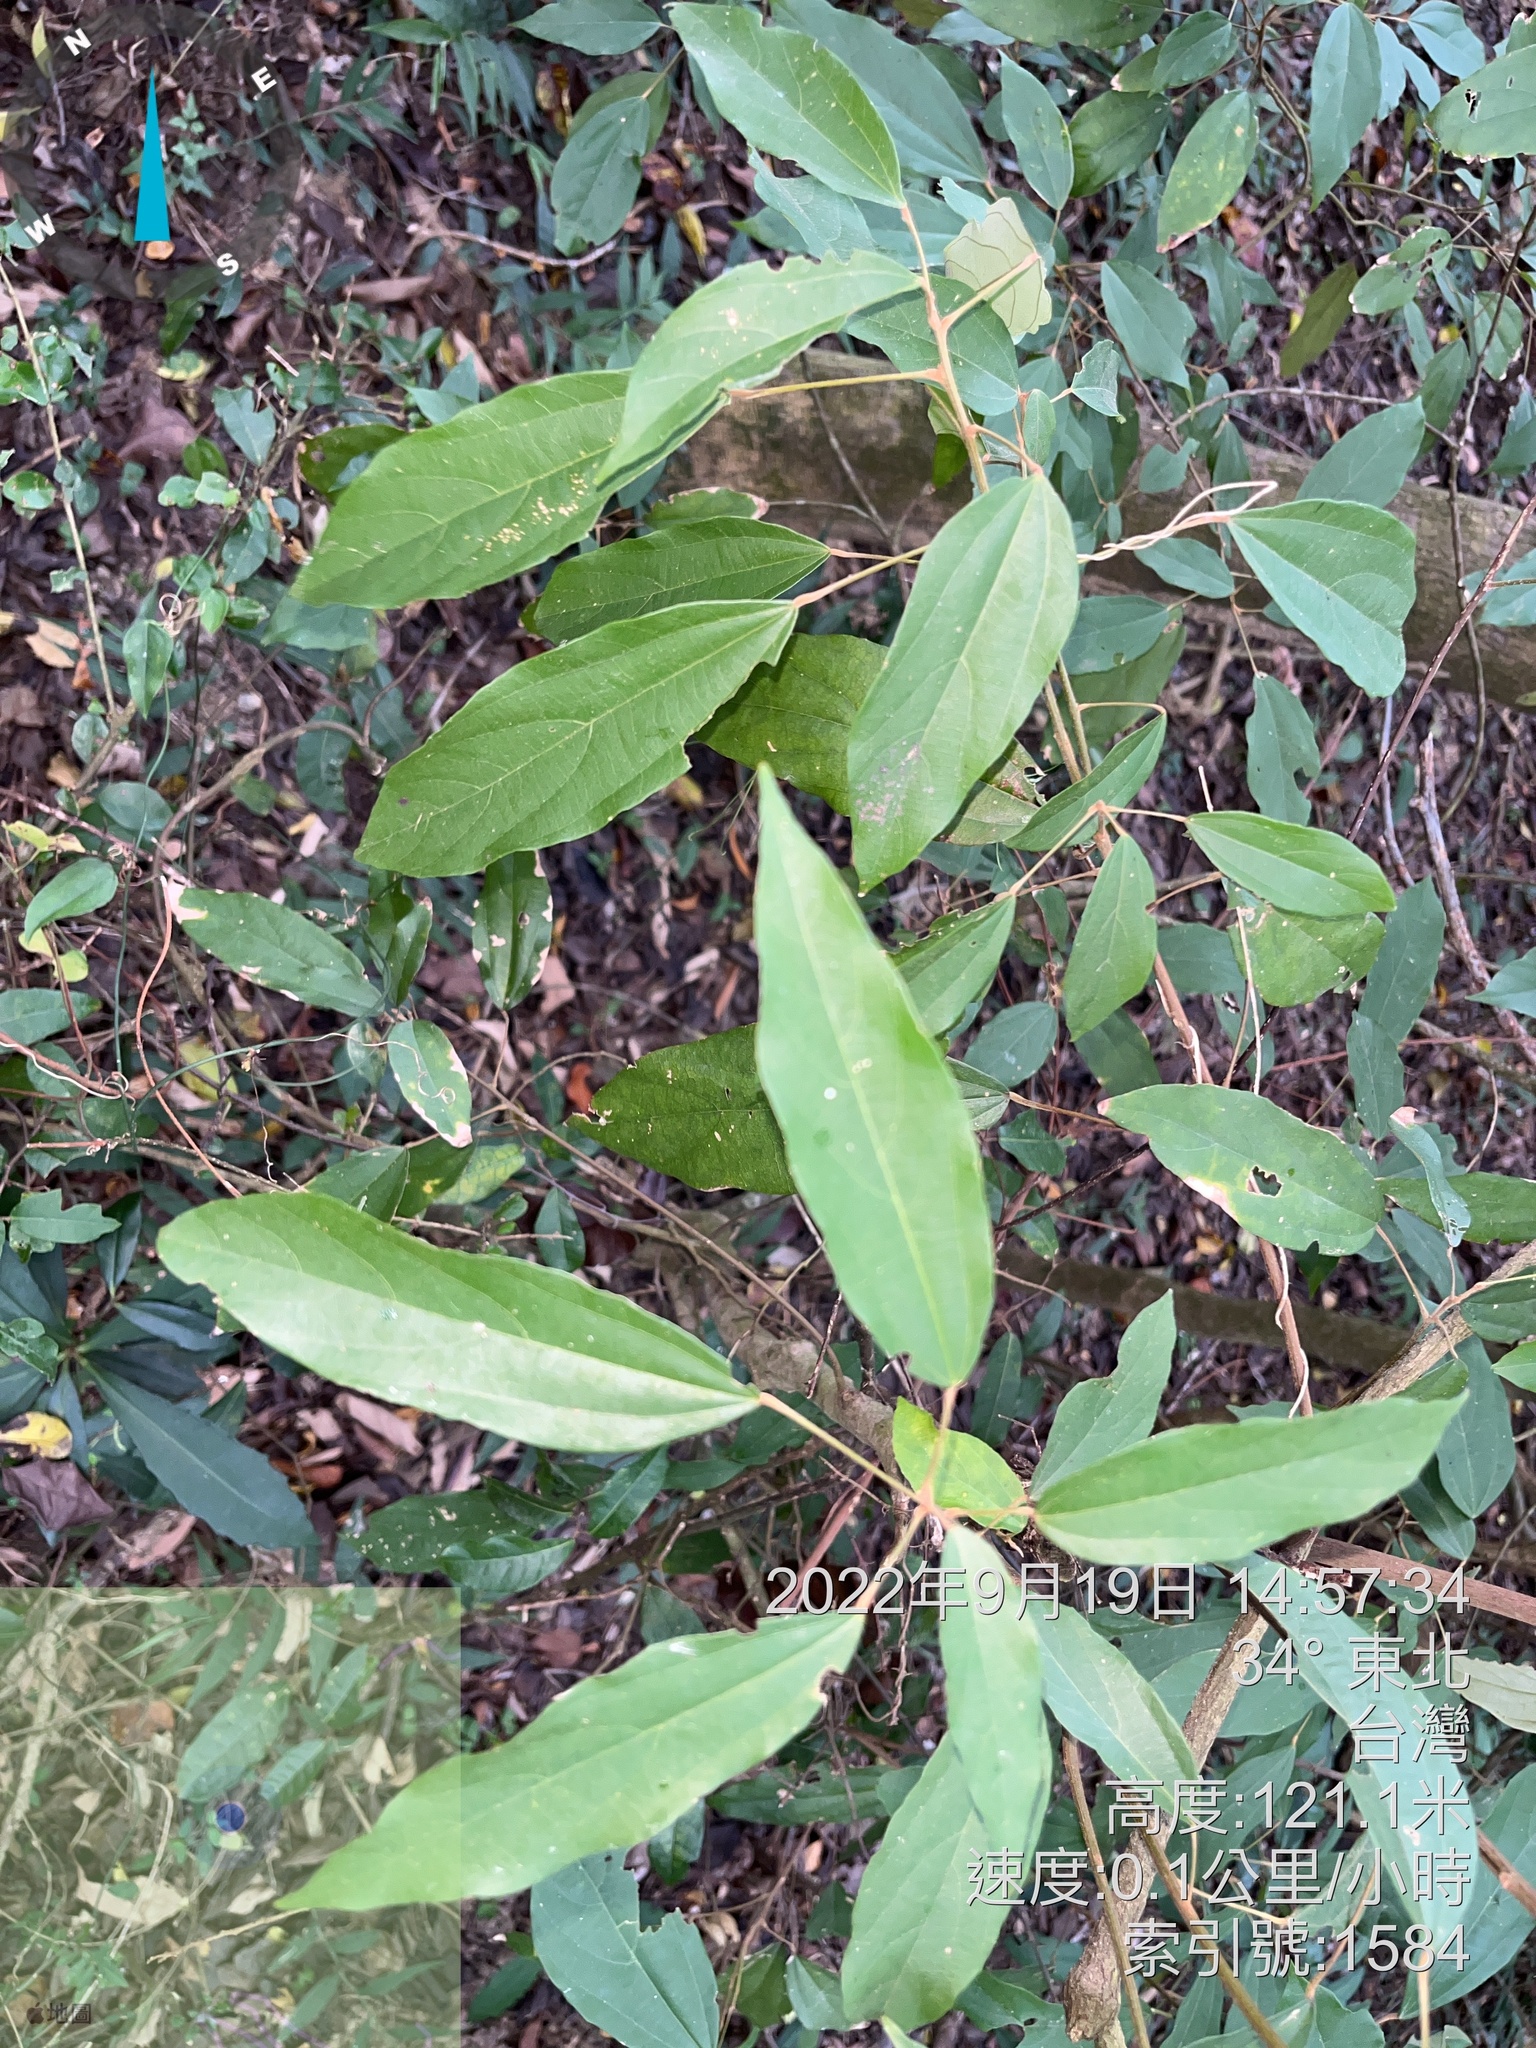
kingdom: Plantae
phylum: Tracheophyta
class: Magnoliopsida
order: Malpighiales
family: Euphorbiaceae
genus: Mallotus
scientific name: Mallotus philippensis
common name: Kamala tree
